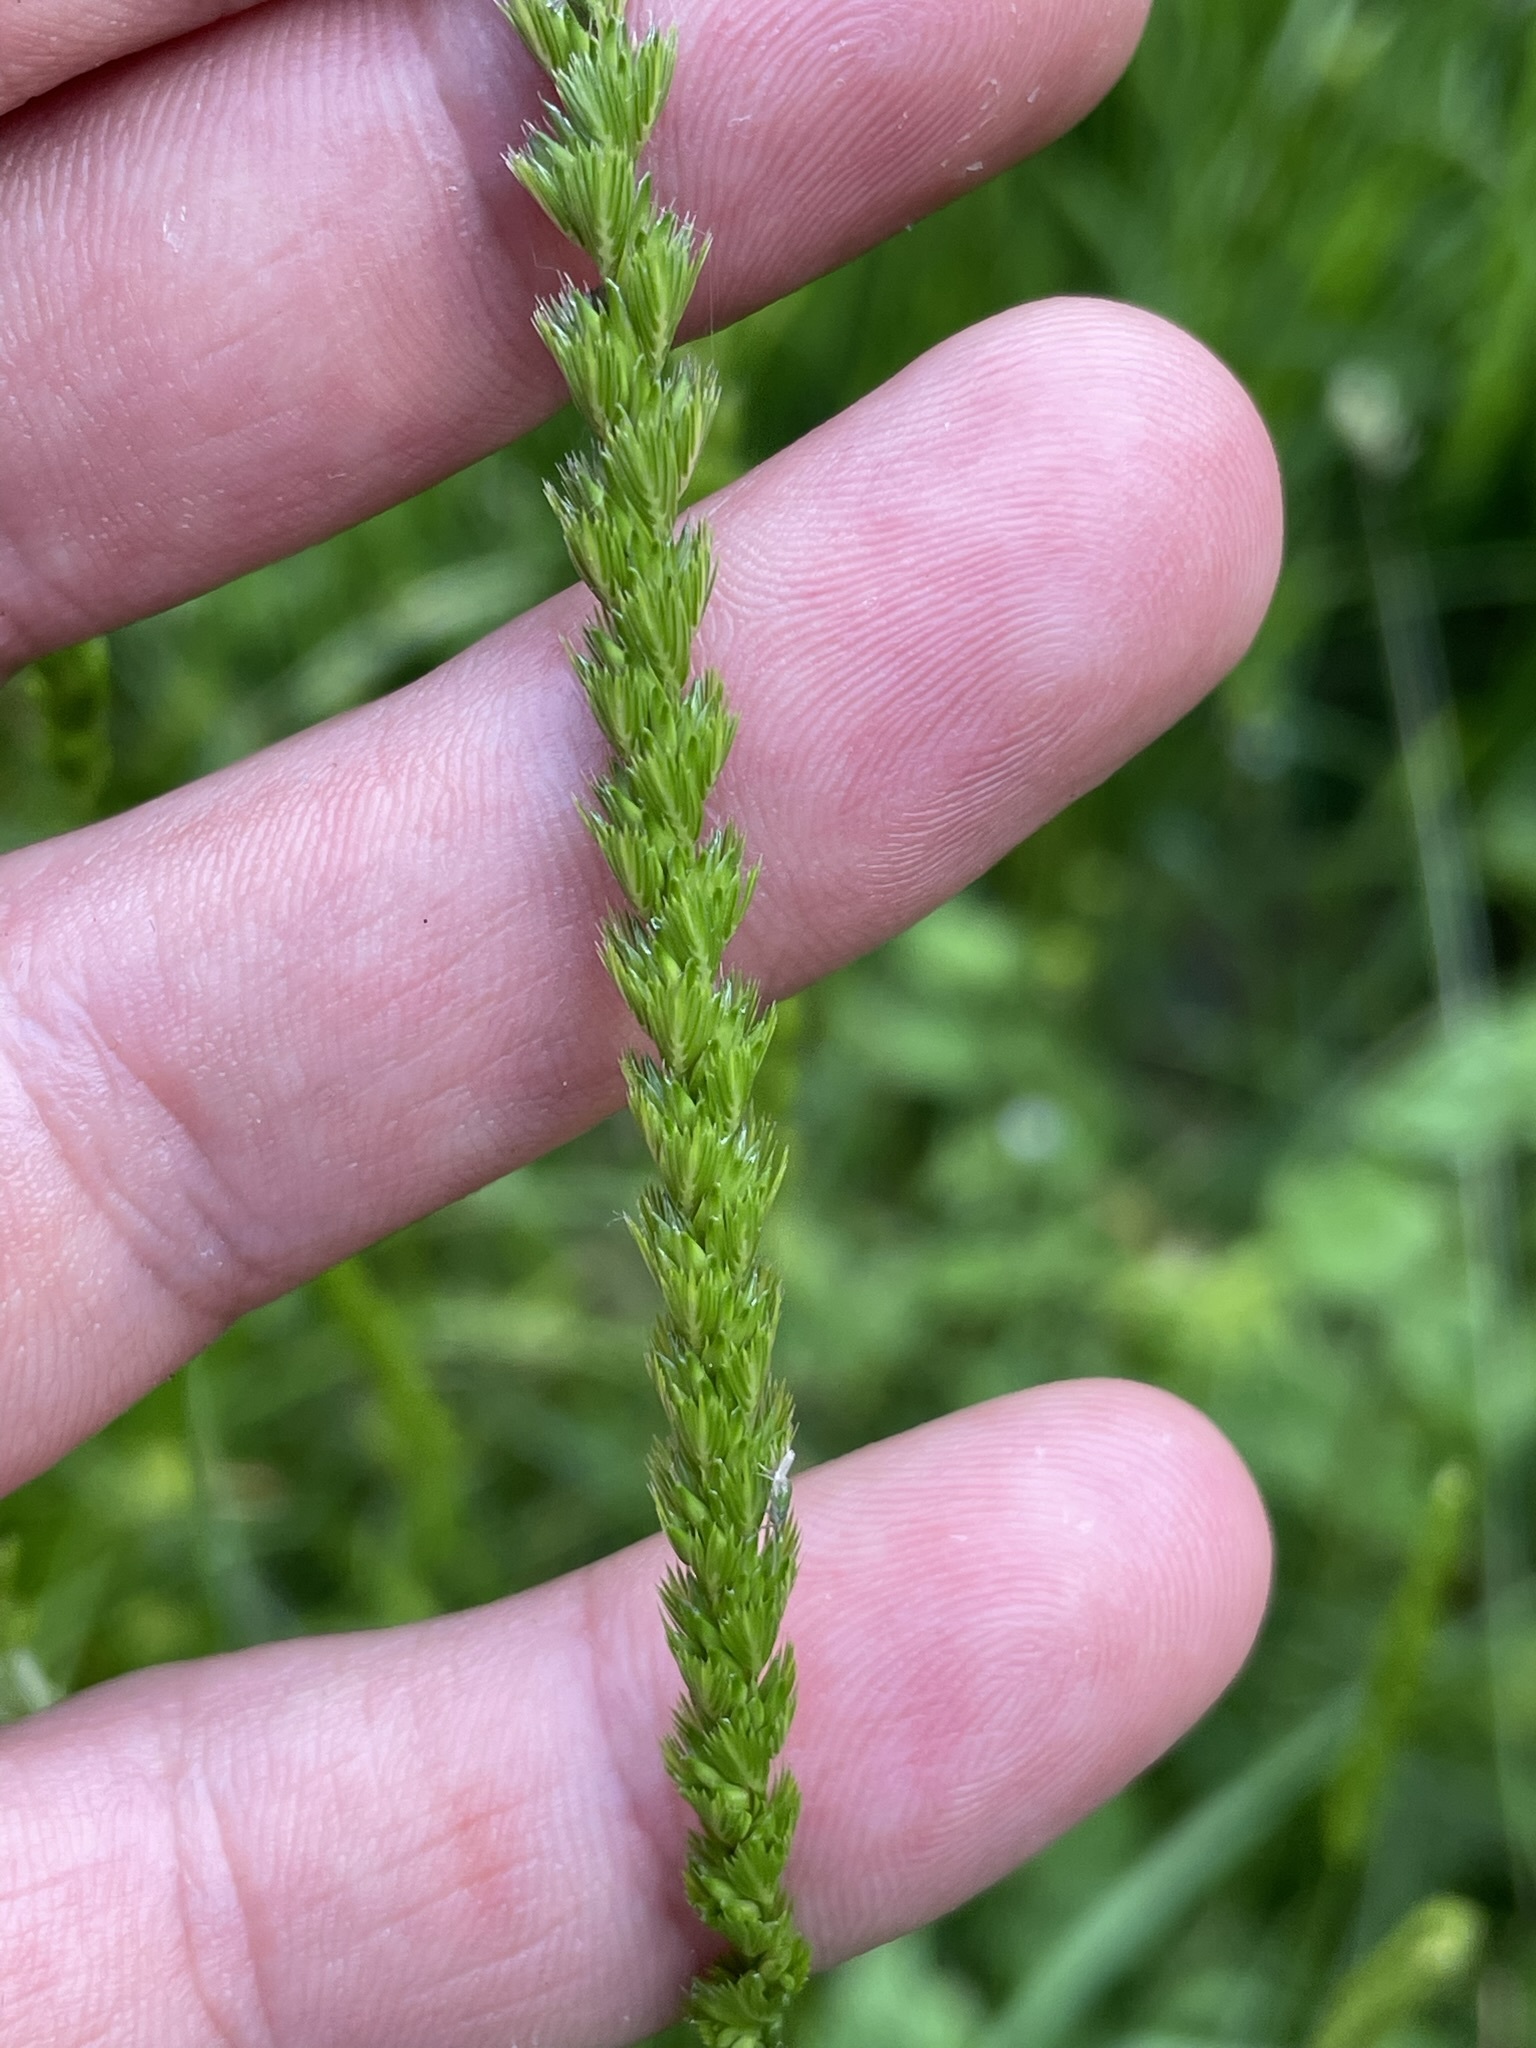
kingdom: Plantae
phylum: Tracheophyta
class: Liliopsida
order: Poales
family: Poaceae
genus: Cynosurus
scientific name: Cynosurus cristatus
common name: Crested dog's-tail
